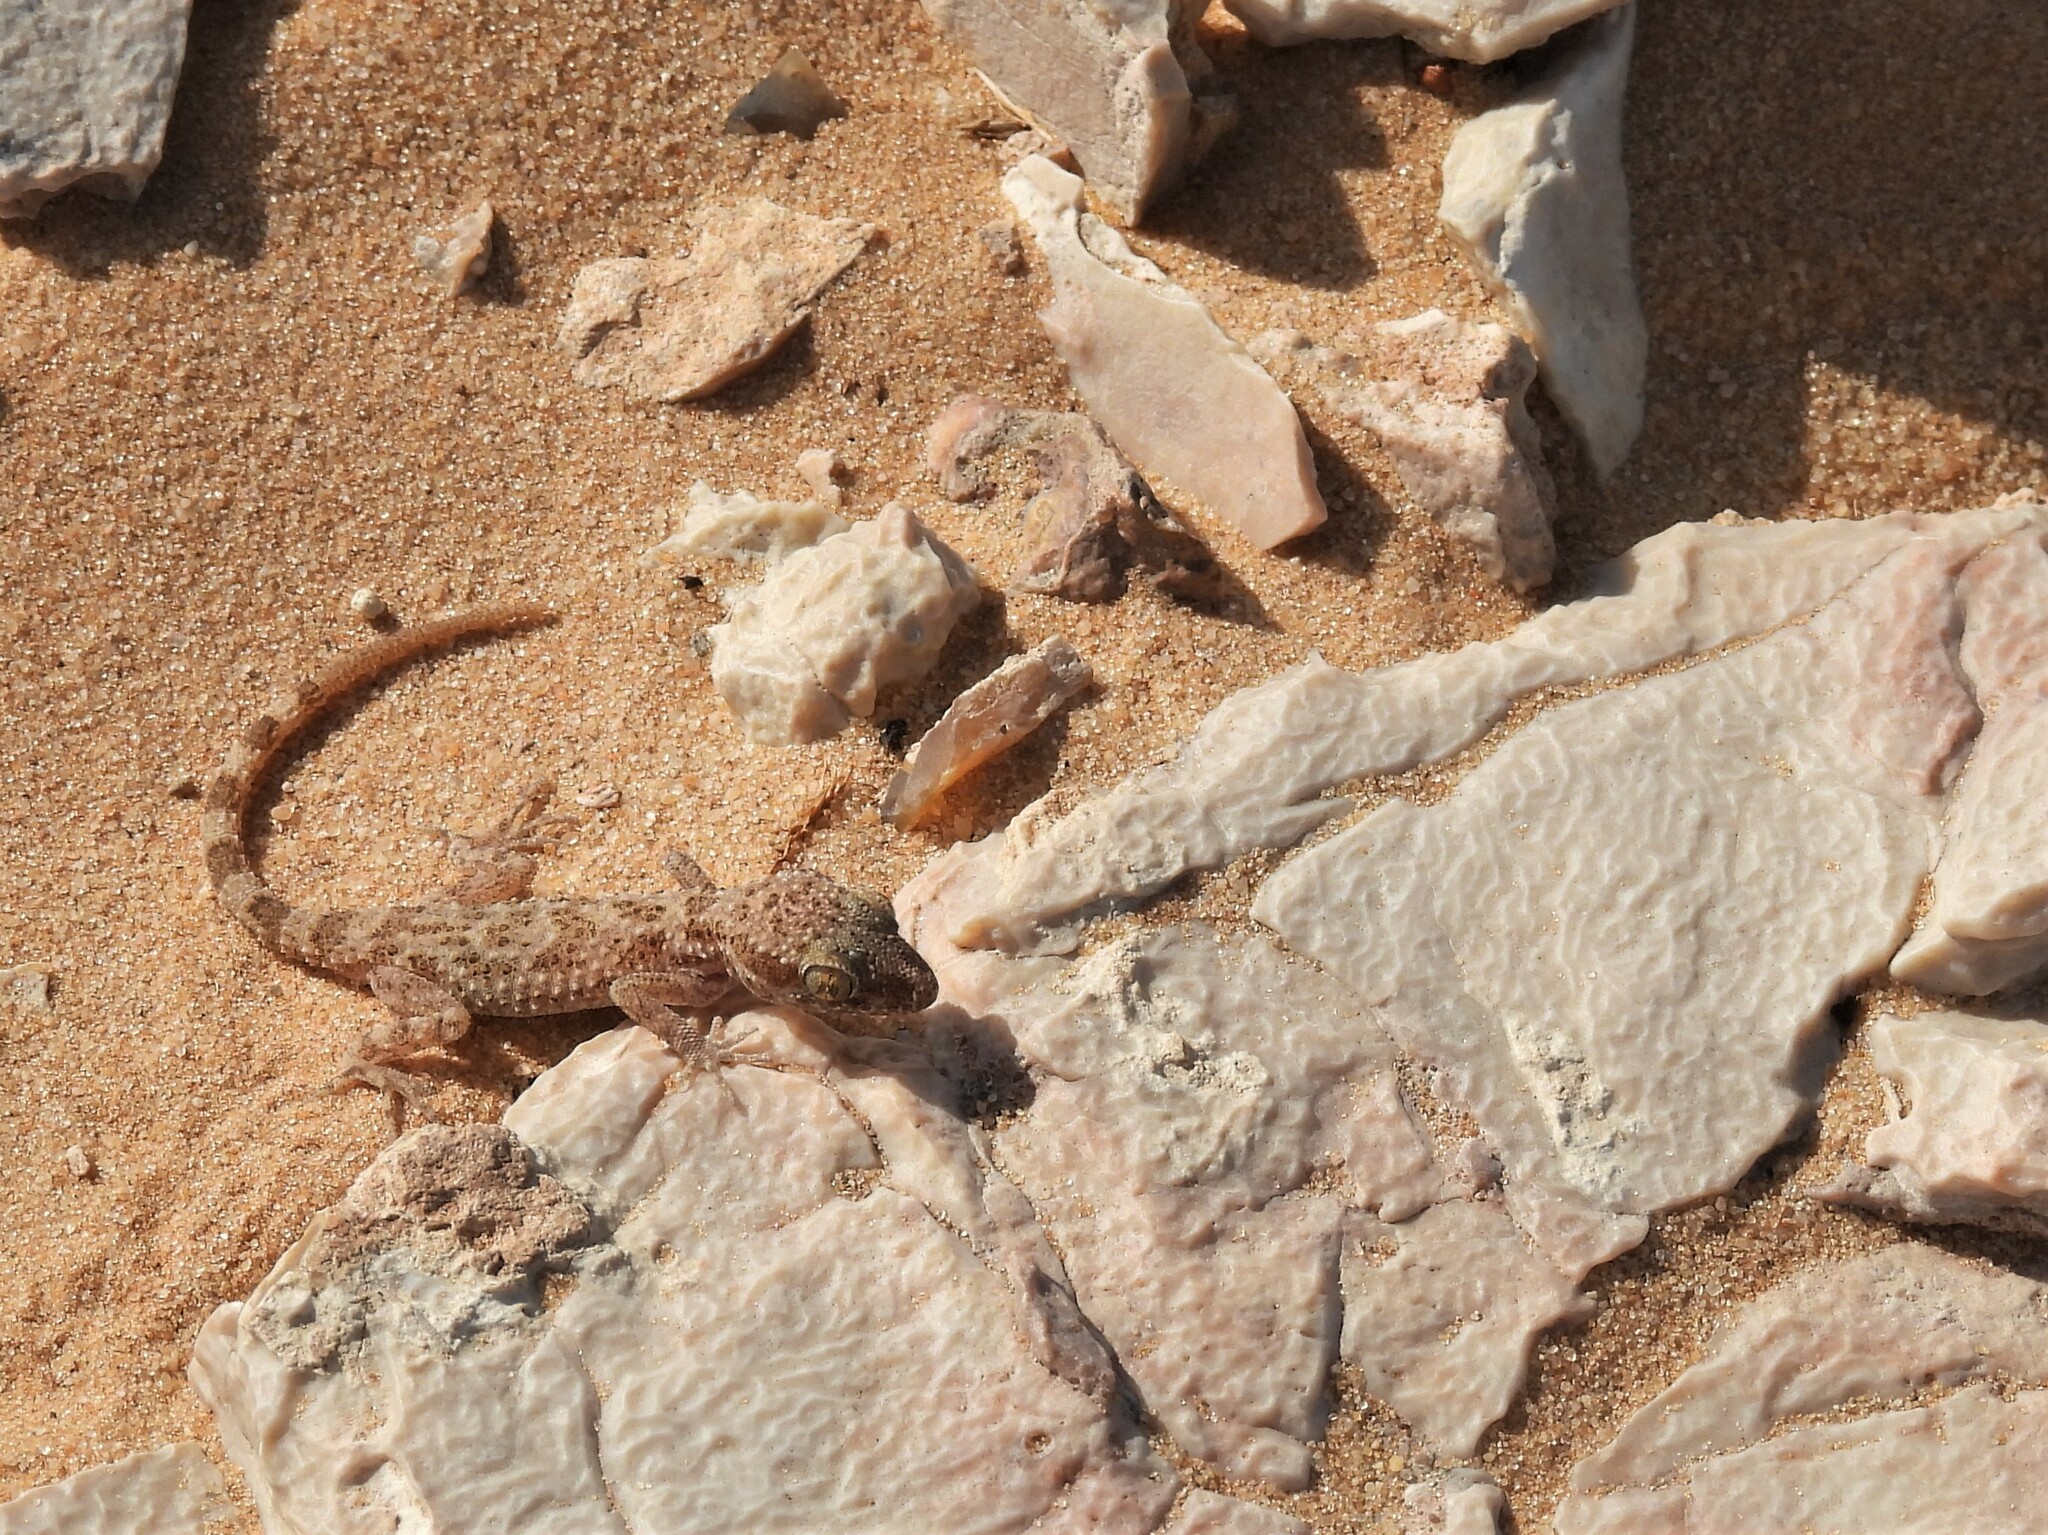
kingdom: Animalia
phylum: Chordata
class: Squamata
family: Gekkonidae
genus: Bunopus
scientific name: Bunopus tuberculatus
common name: Southern tuberculated gecko
